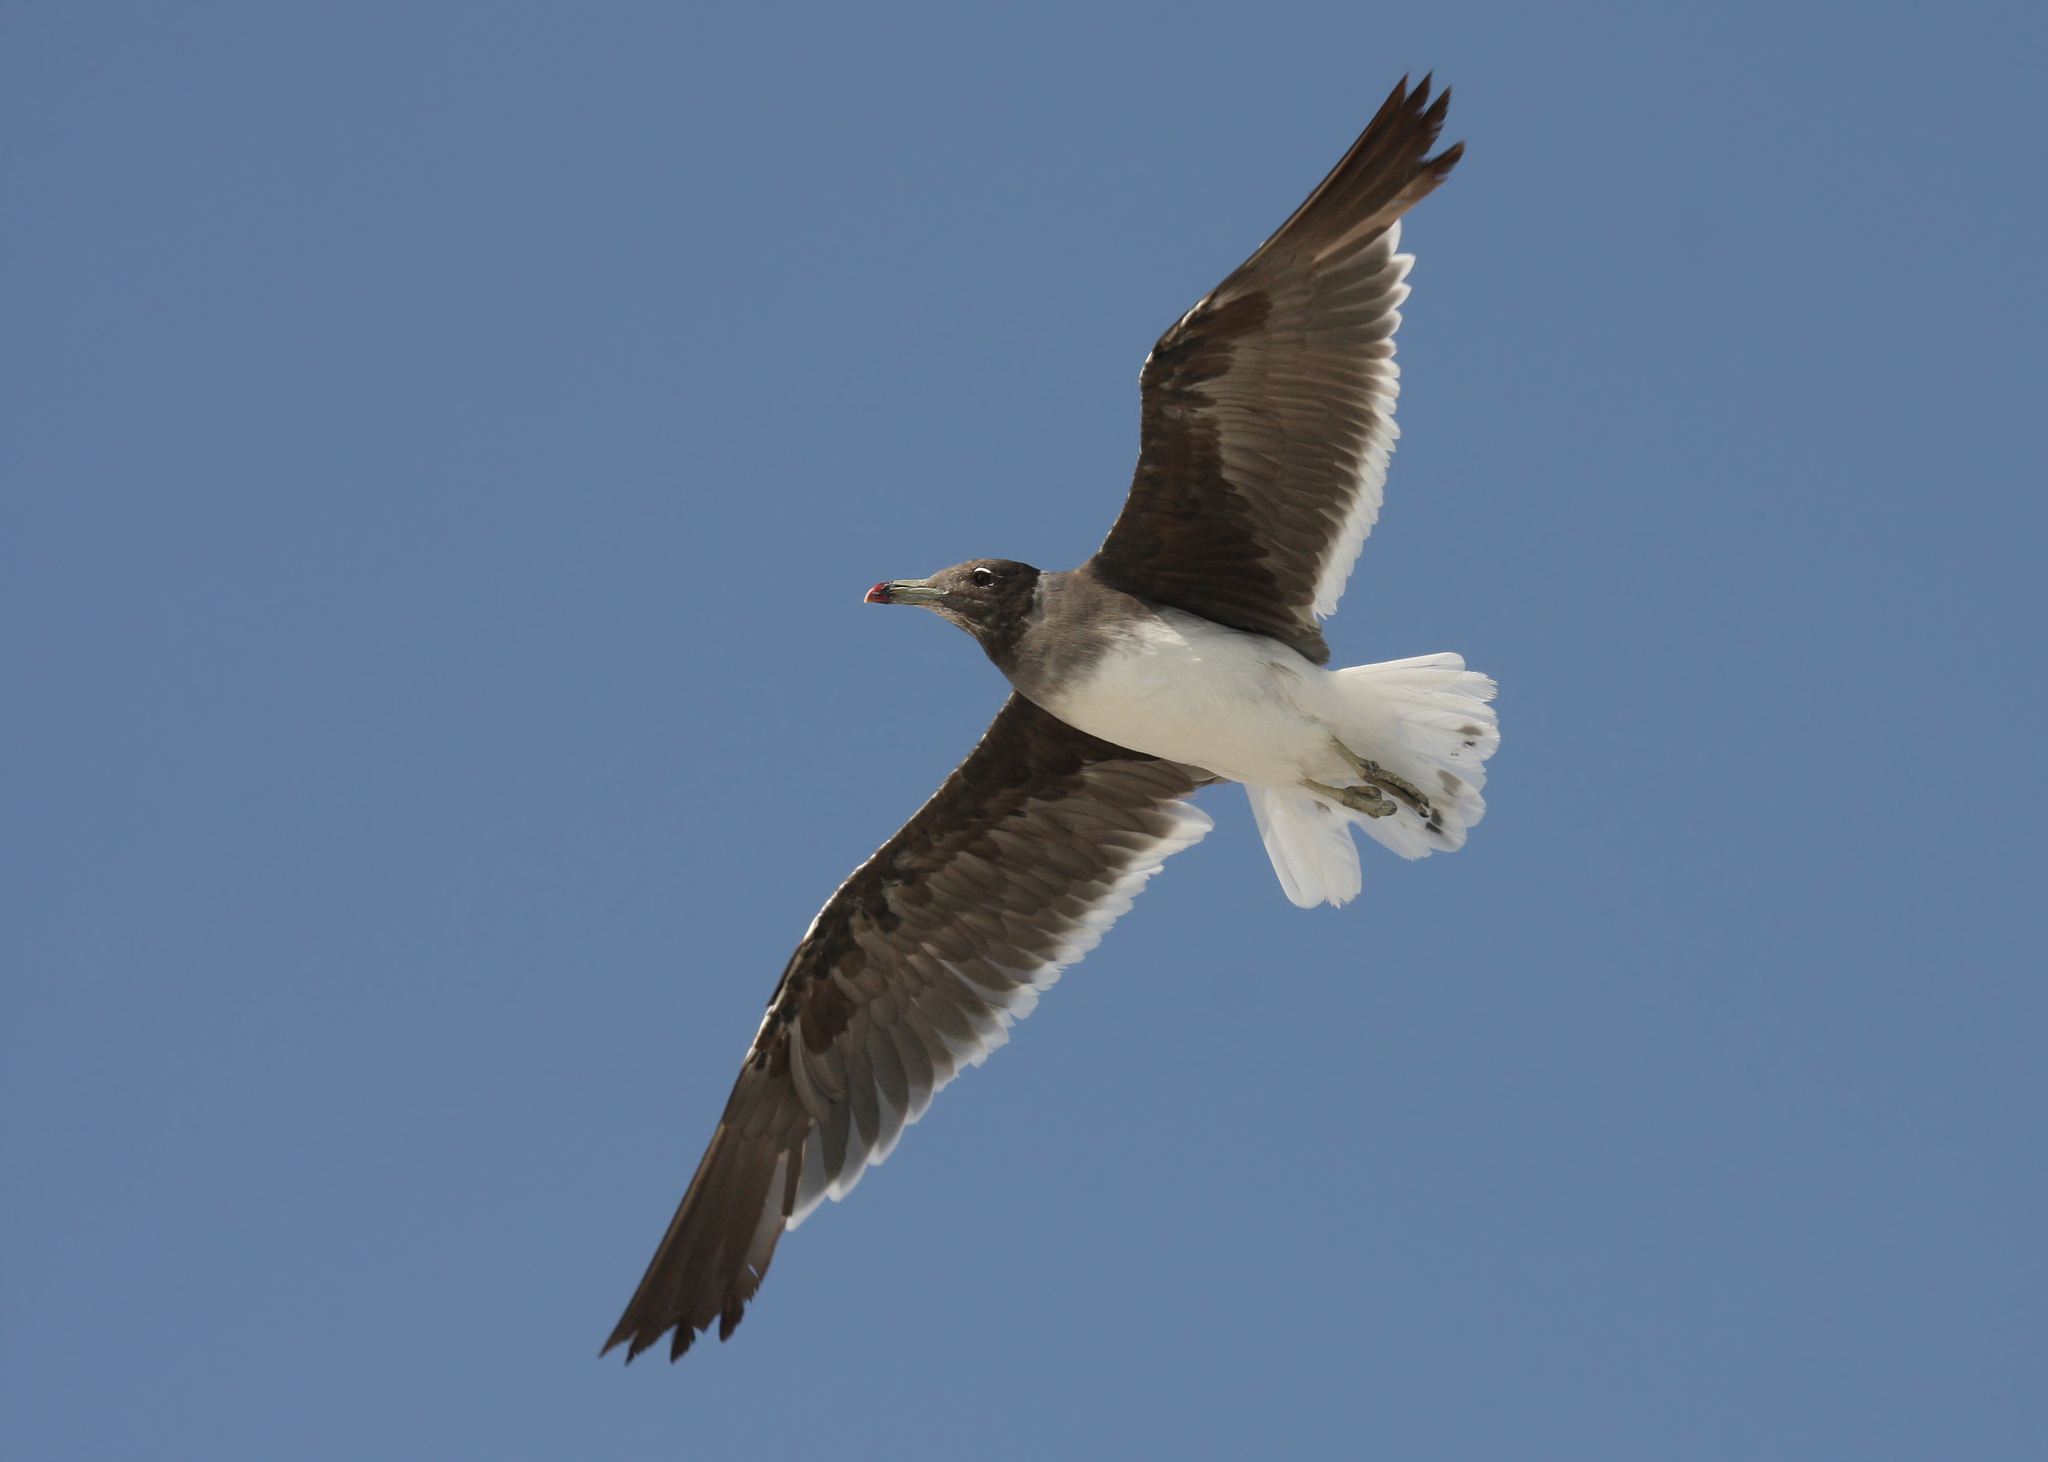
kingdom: Animalia
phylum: Chordata
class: Aves
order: Charadriiformes
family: Laridae
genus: Ichthyaetus
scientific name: Ichthyaetus hemprichii
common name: Sooty gull
